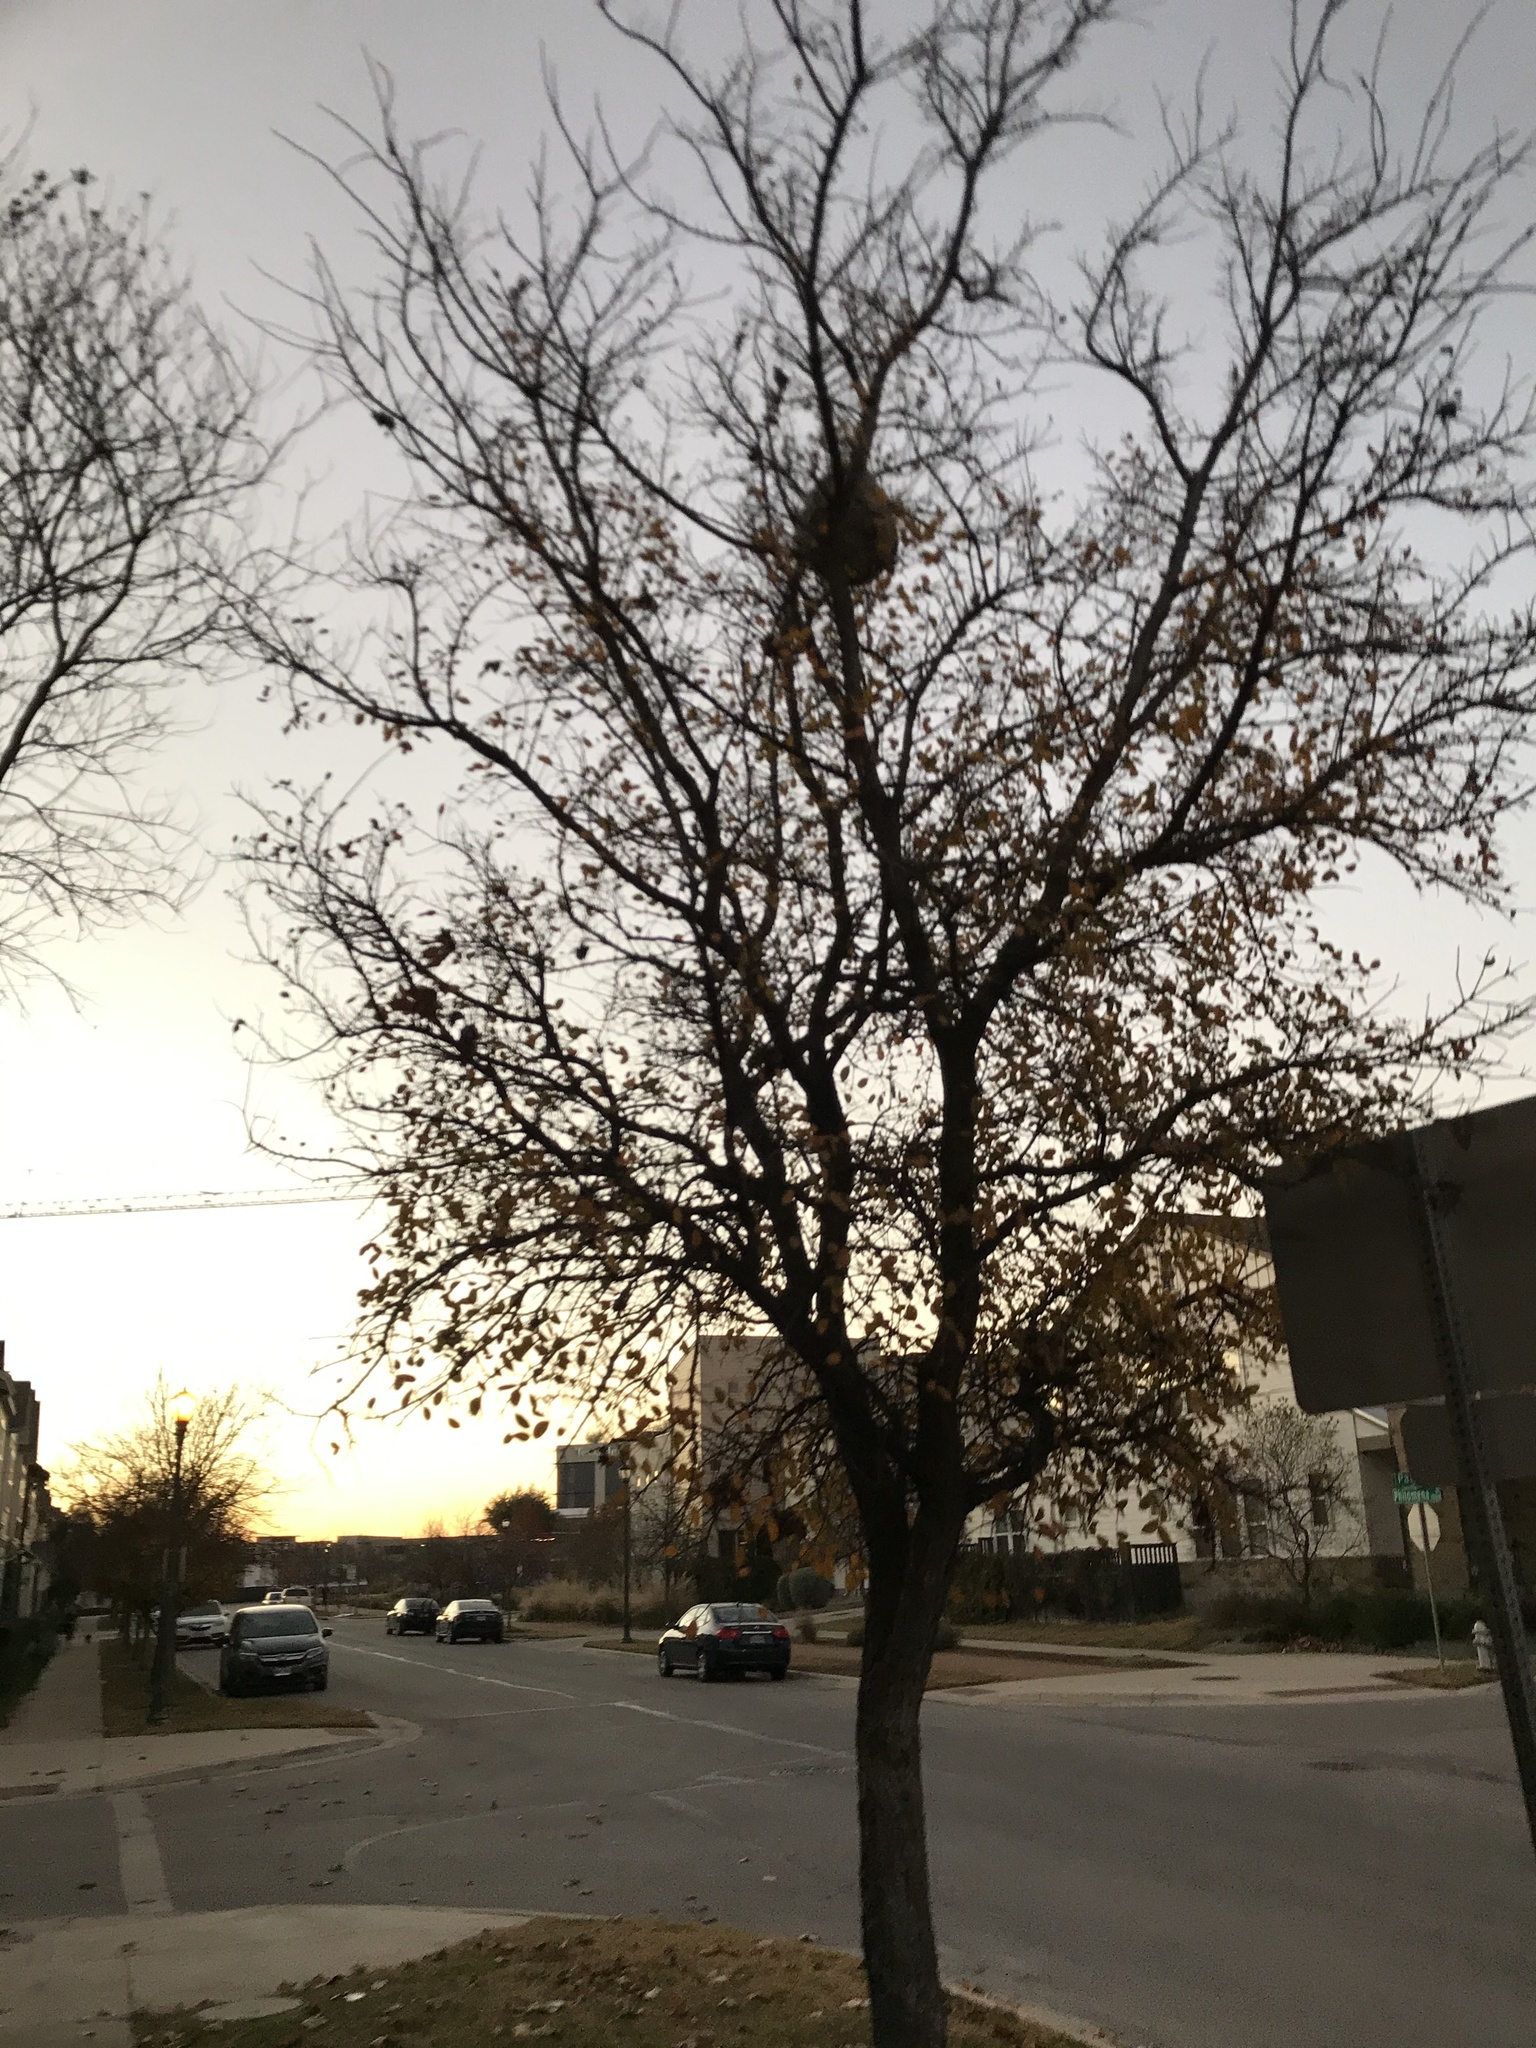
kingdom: Animalia
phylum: Arthropoda
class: Insecta
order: Hymenoptera
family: Vespidae
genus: Brachygastra
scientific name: Brachygastra mellifica
